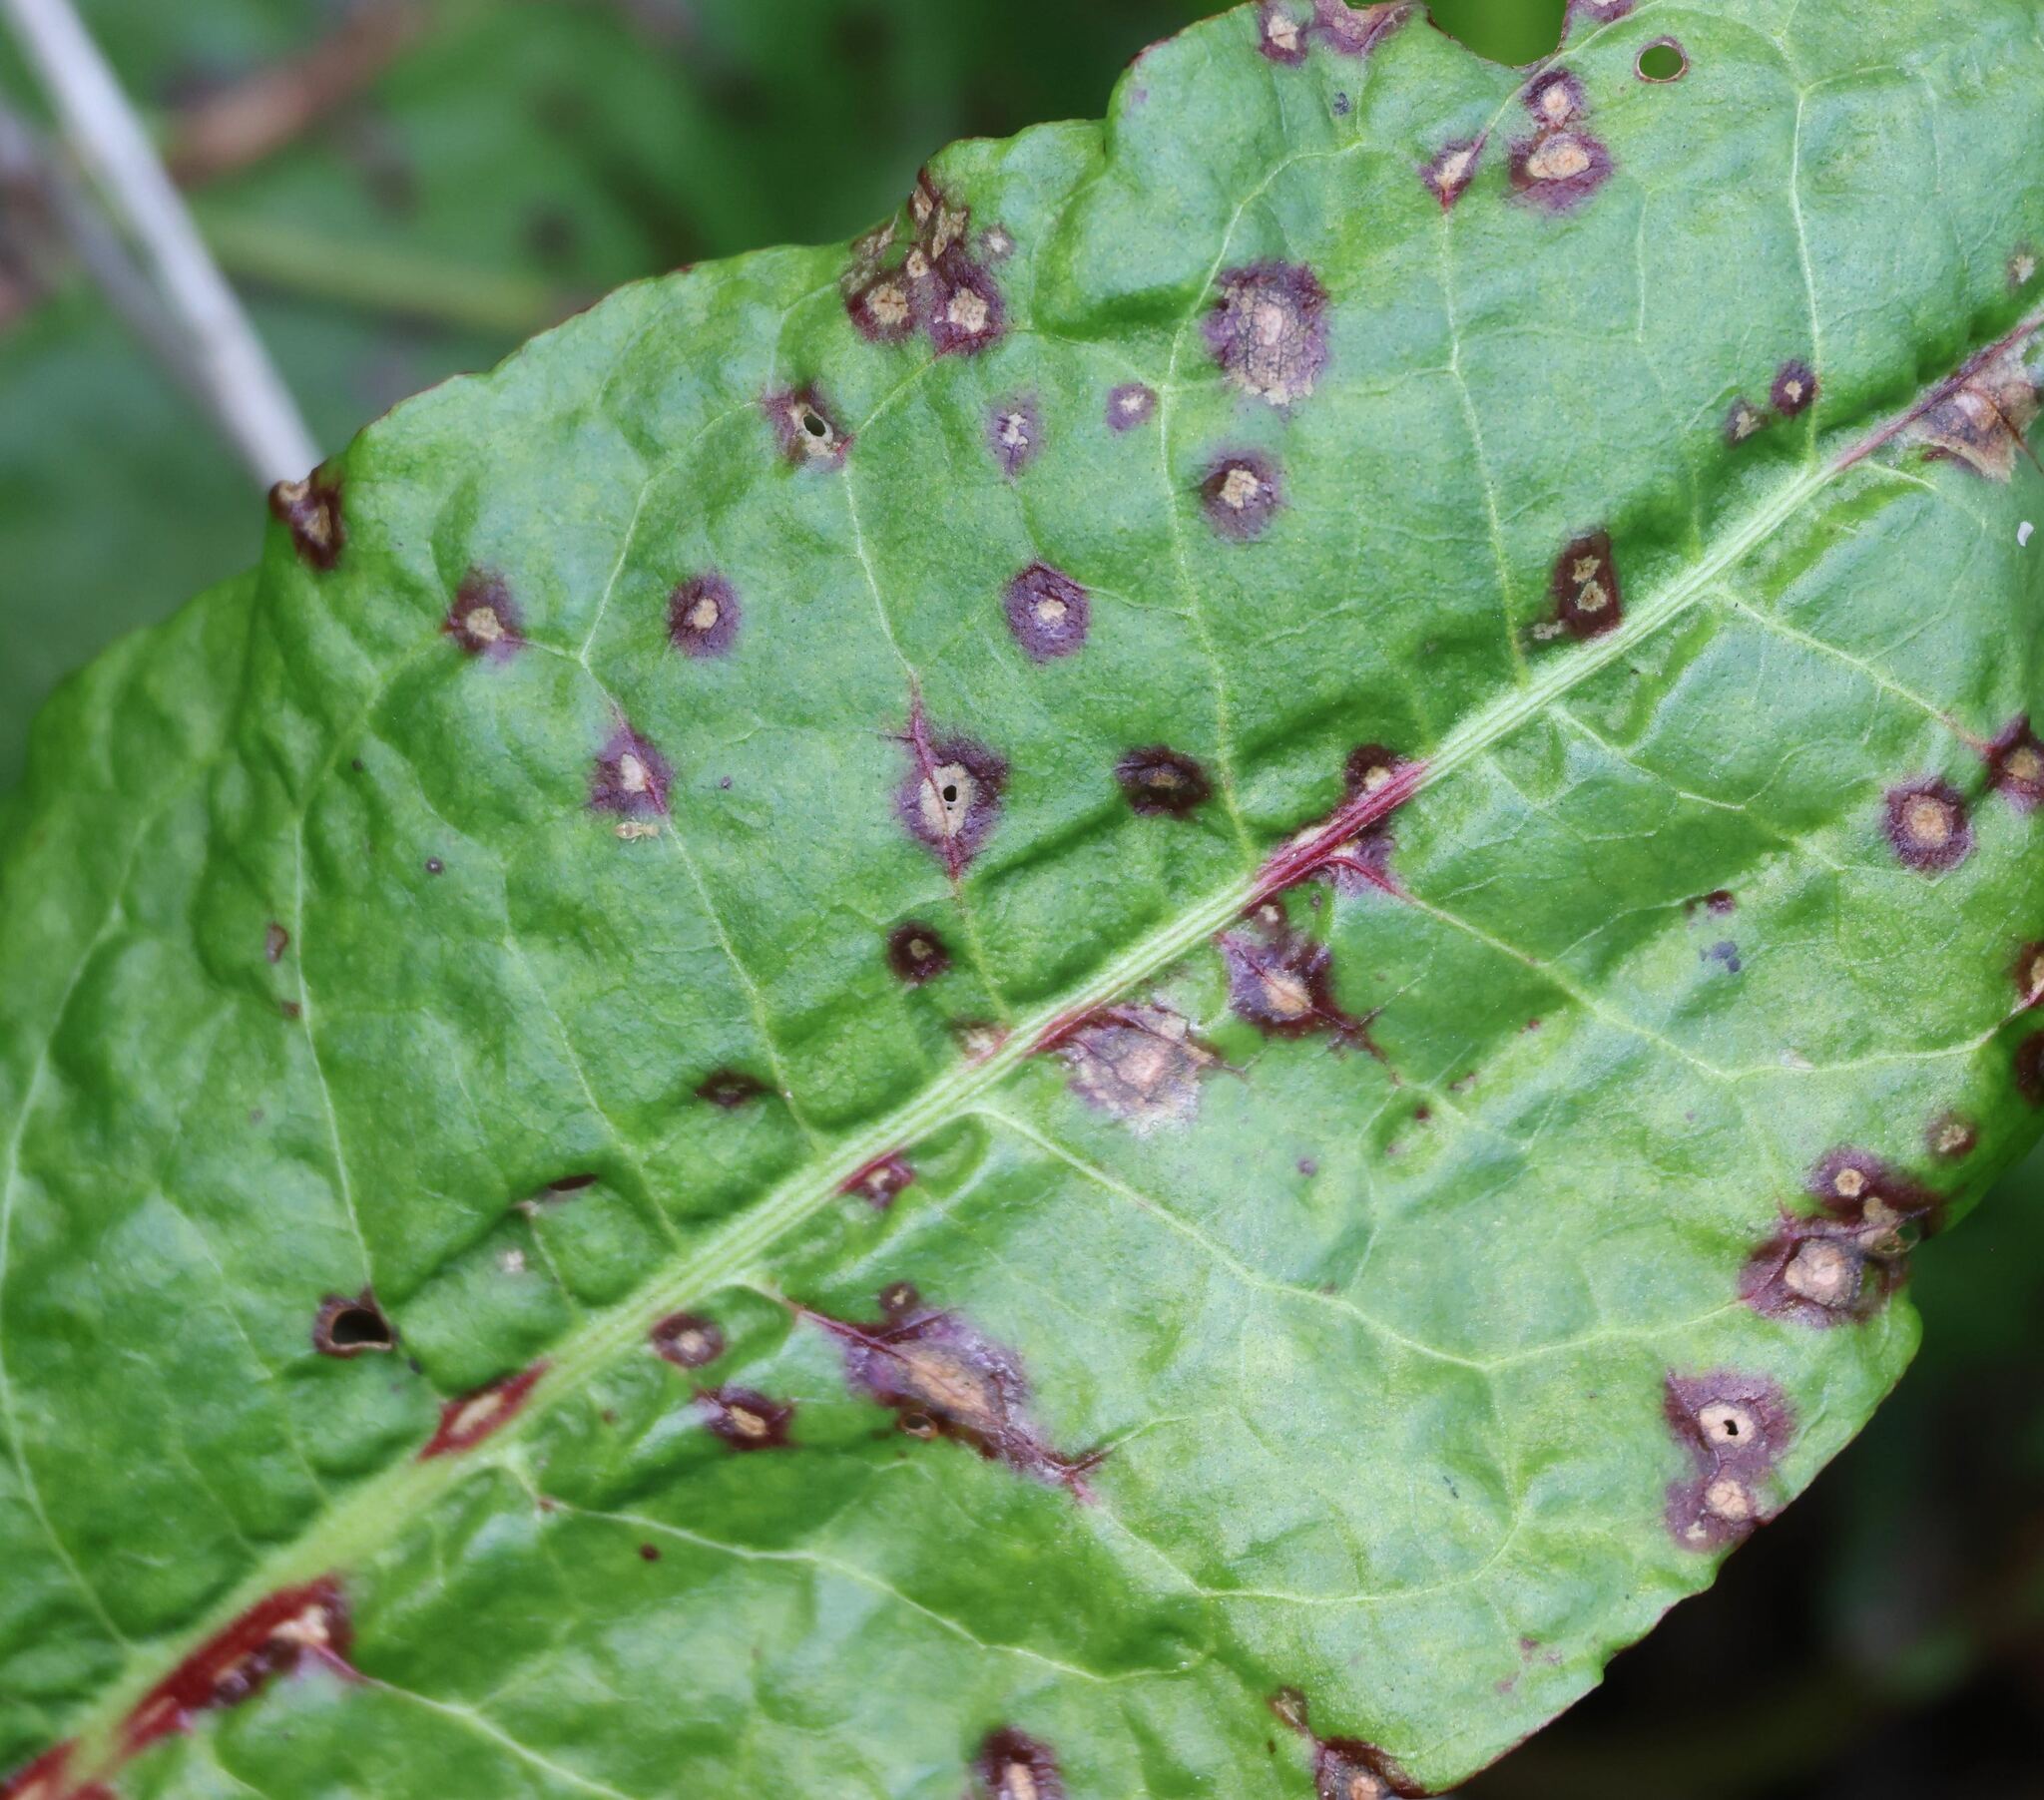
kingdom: Fungi
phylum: Ascomycota
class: Dothideomycetes
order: Mycosphaerellales
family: Mycosphaerellaceae
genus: Ramularia
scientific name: Ramularia rubella
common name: Red dock spot
